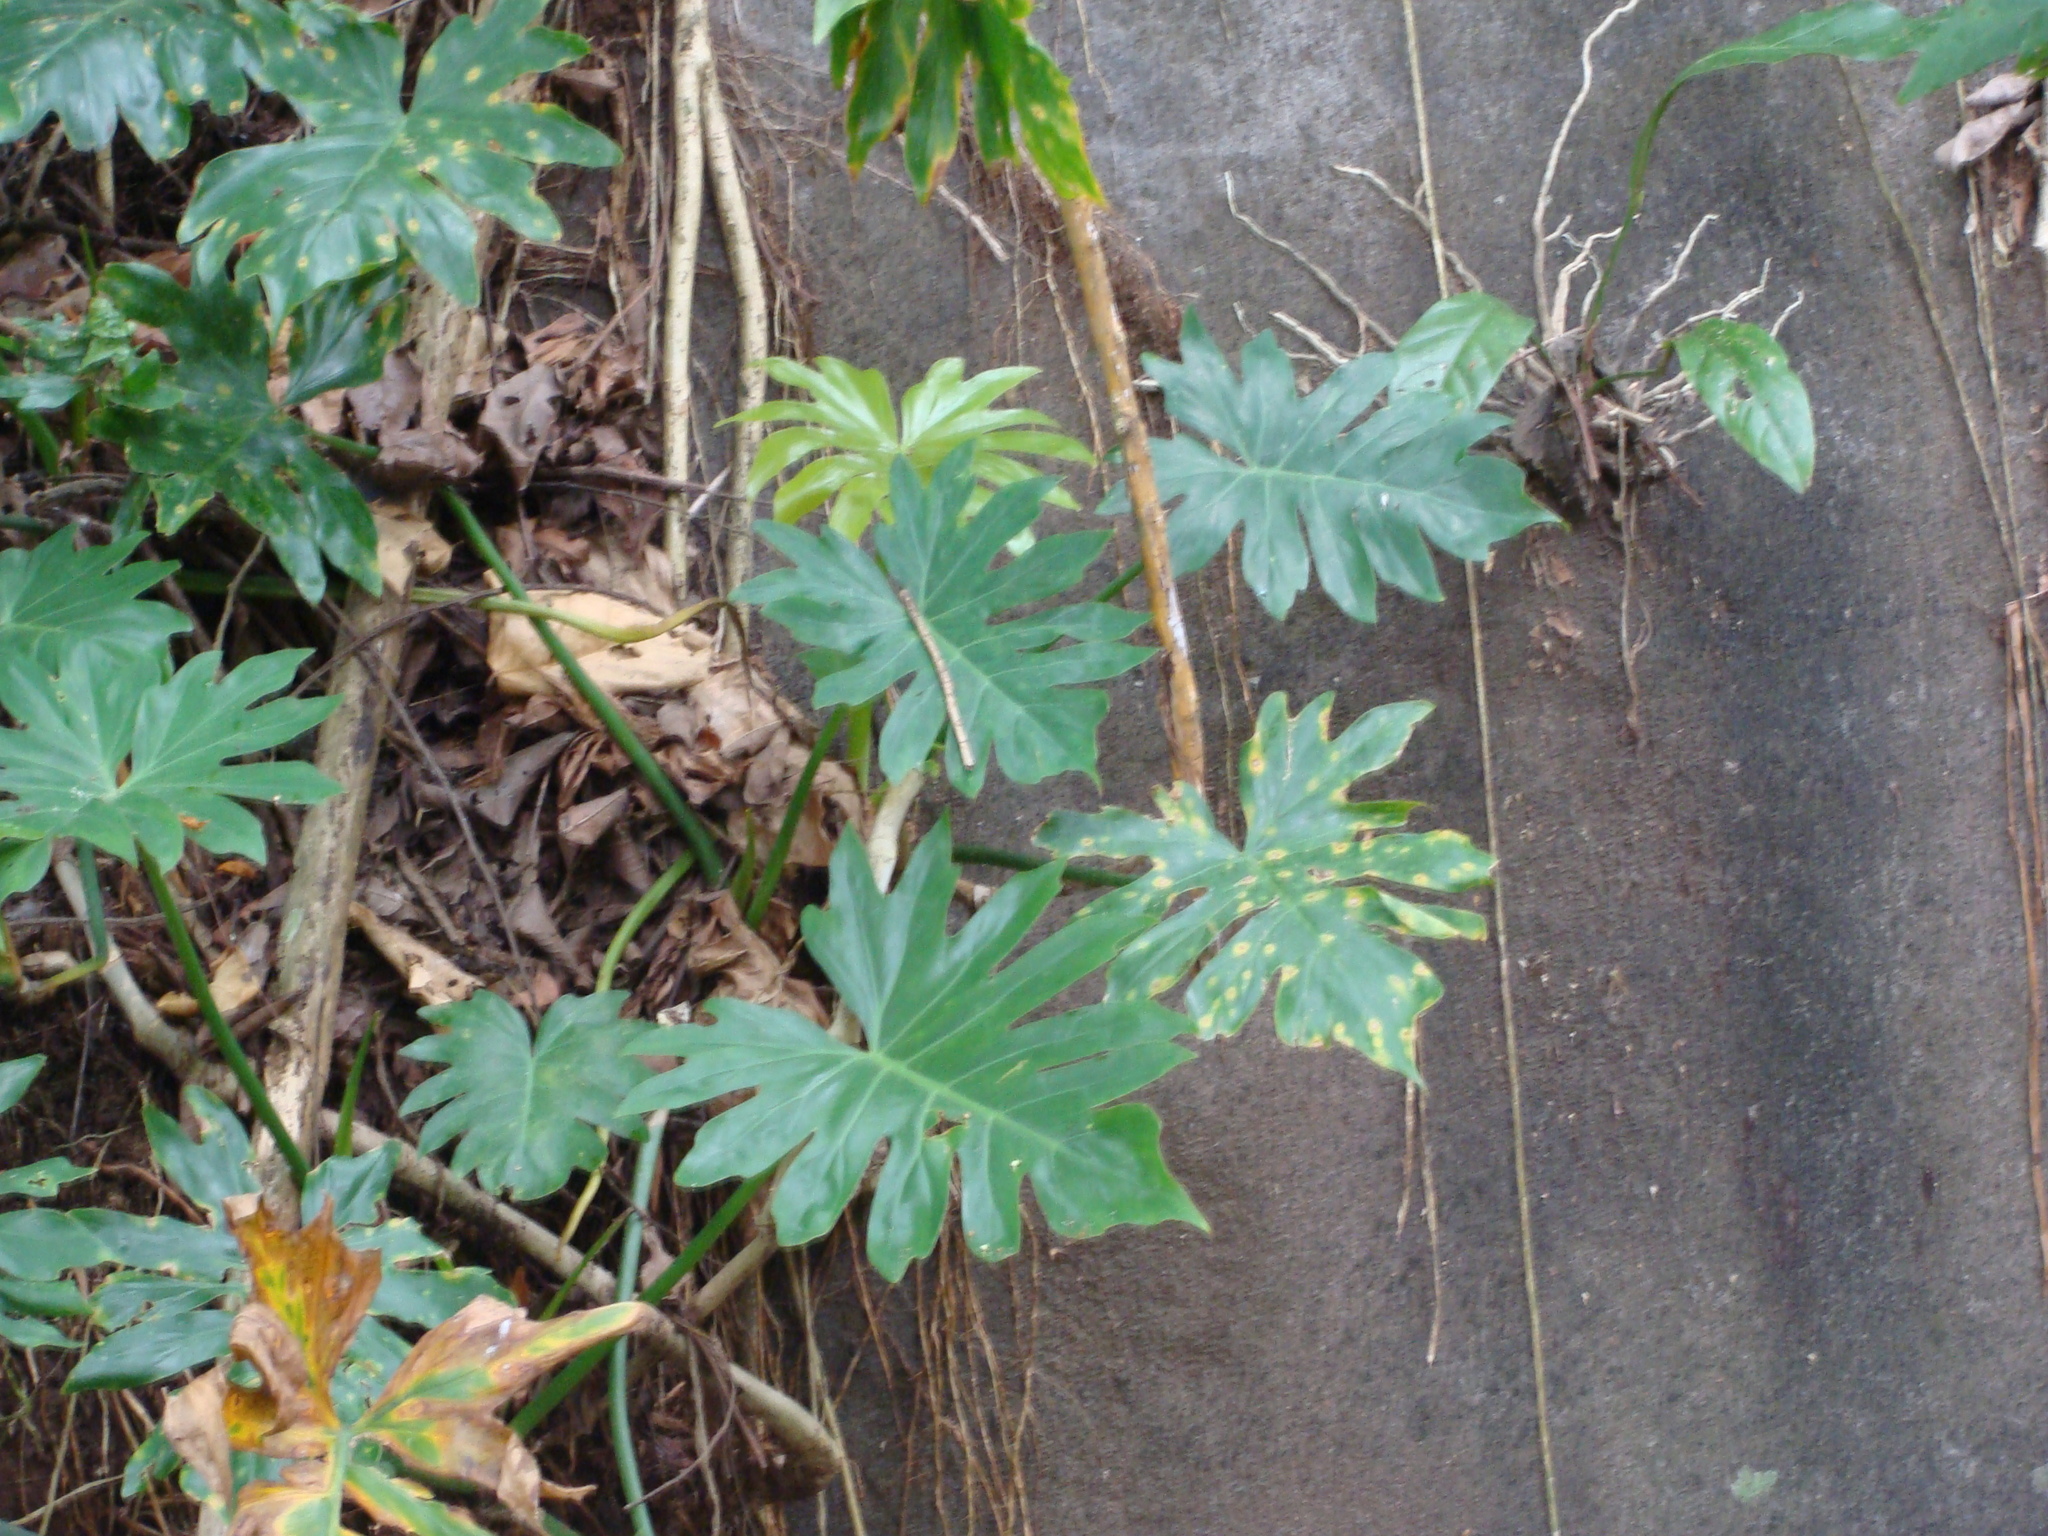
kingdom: Plantae
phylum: Tracheophyta
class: Liliopsida
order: Alismatales
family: Araceae
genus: Philodendron
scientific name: Philodendron radiatum
